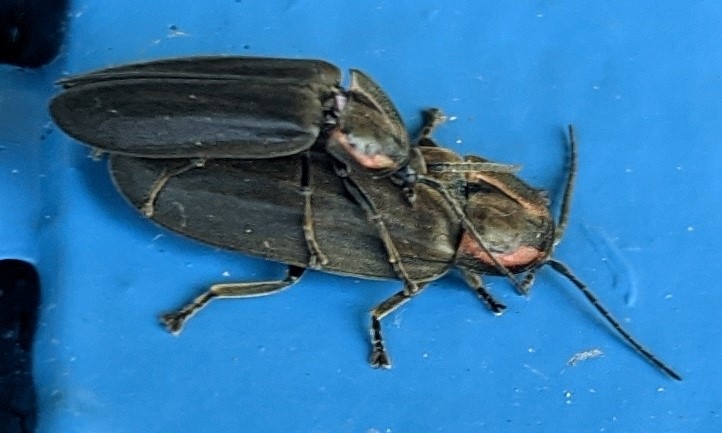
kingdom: Animalia
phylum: Arthropoda
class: Insecta
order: Coleoptera
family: Lampyridae
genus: Photinus
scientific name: Photinus corrusca
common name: Winter firefly
